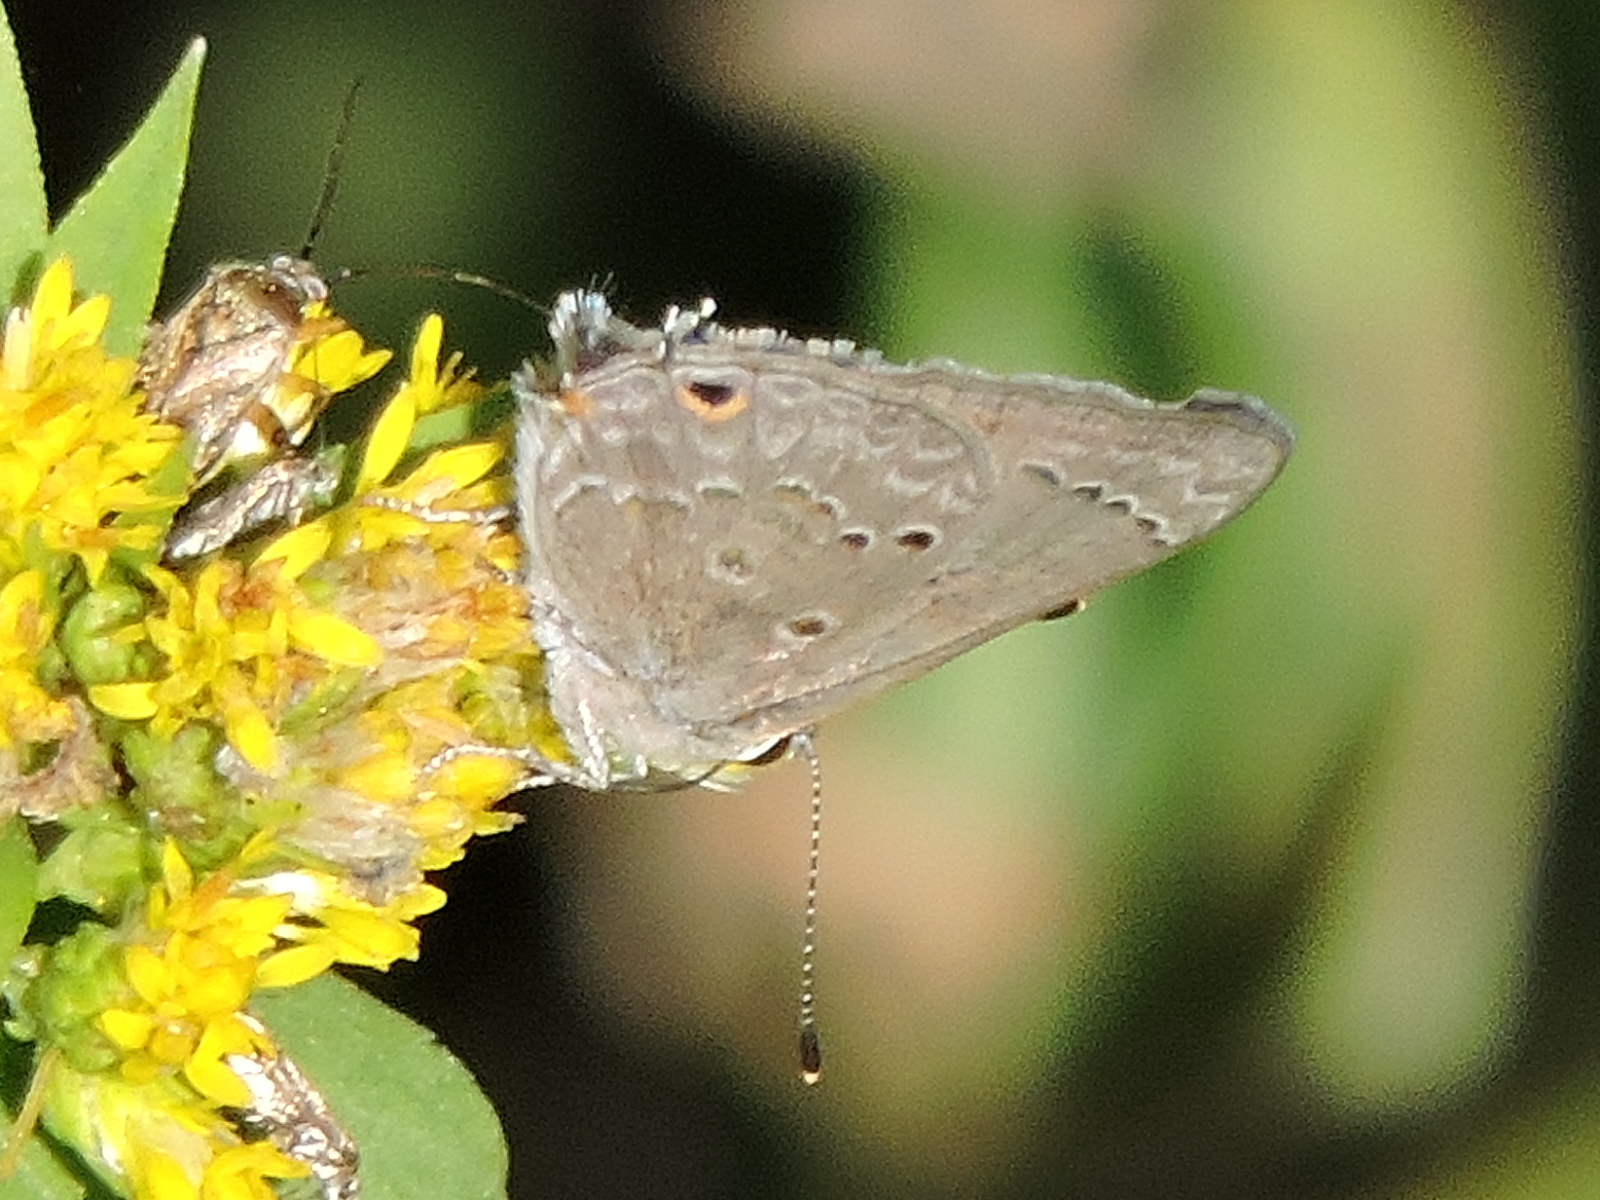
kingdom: Animalia
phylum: Arthropoda
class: Insecta
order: Lepidoptera
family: Lycaenidae
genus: Callicista
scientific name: Callicista columella
